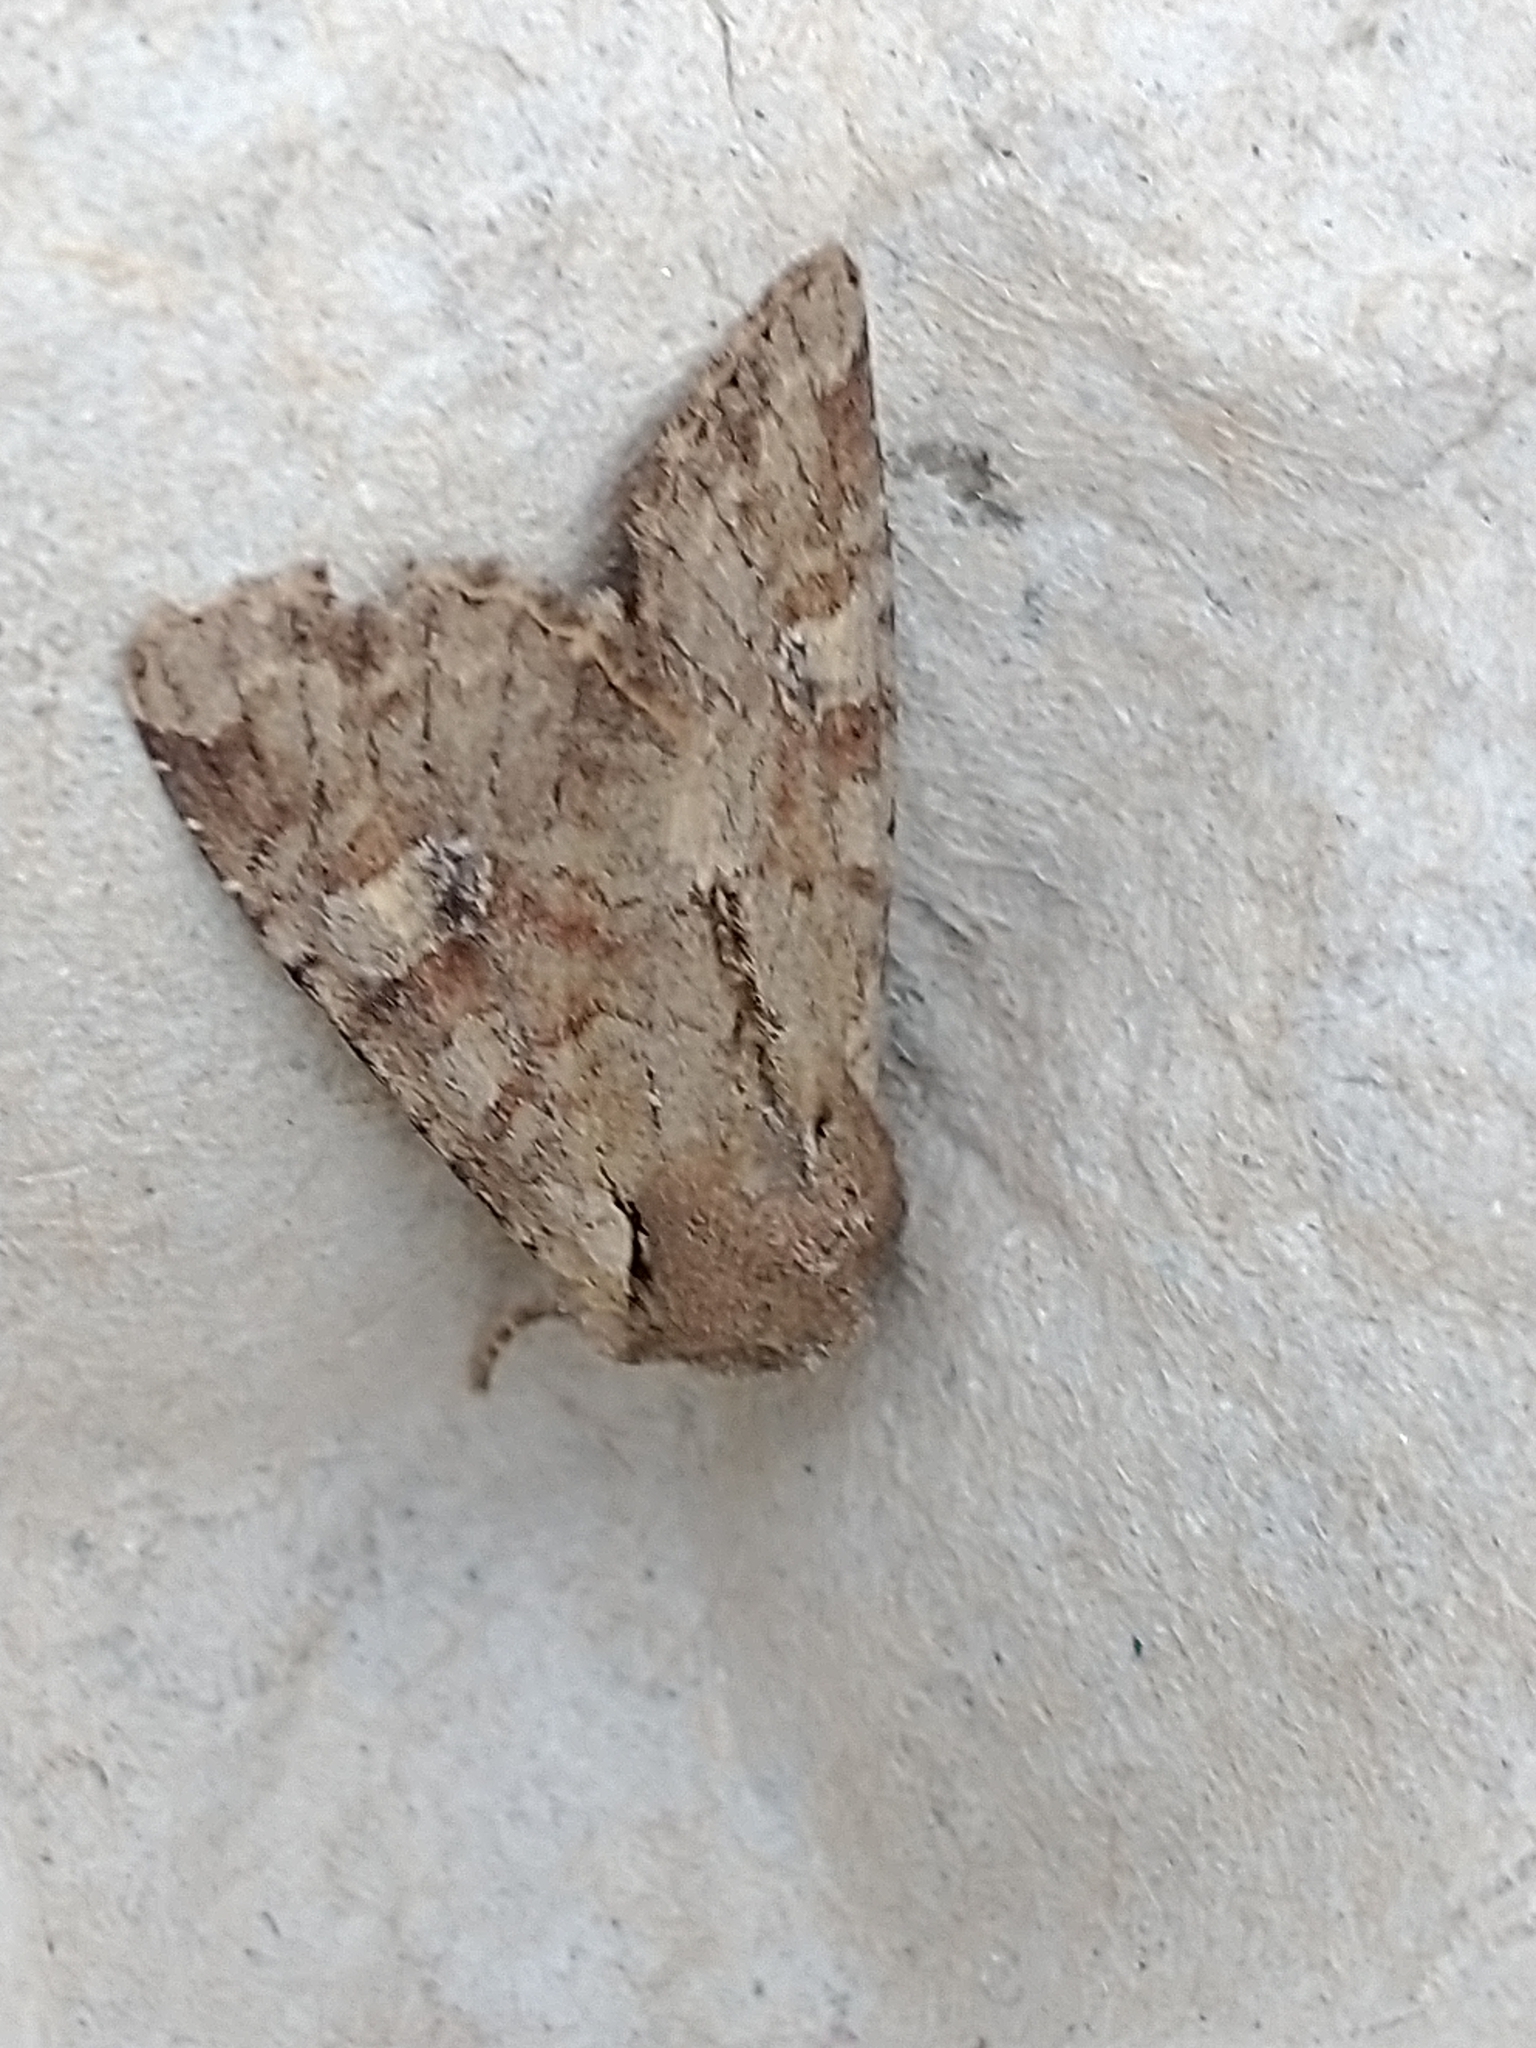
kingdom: Animalia
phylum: Arthropoda
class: Insecta
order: Lepidoptera
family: Noctuidae
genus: Apamea
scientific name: Apamea sordens
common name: Rustic shoulder-knot
